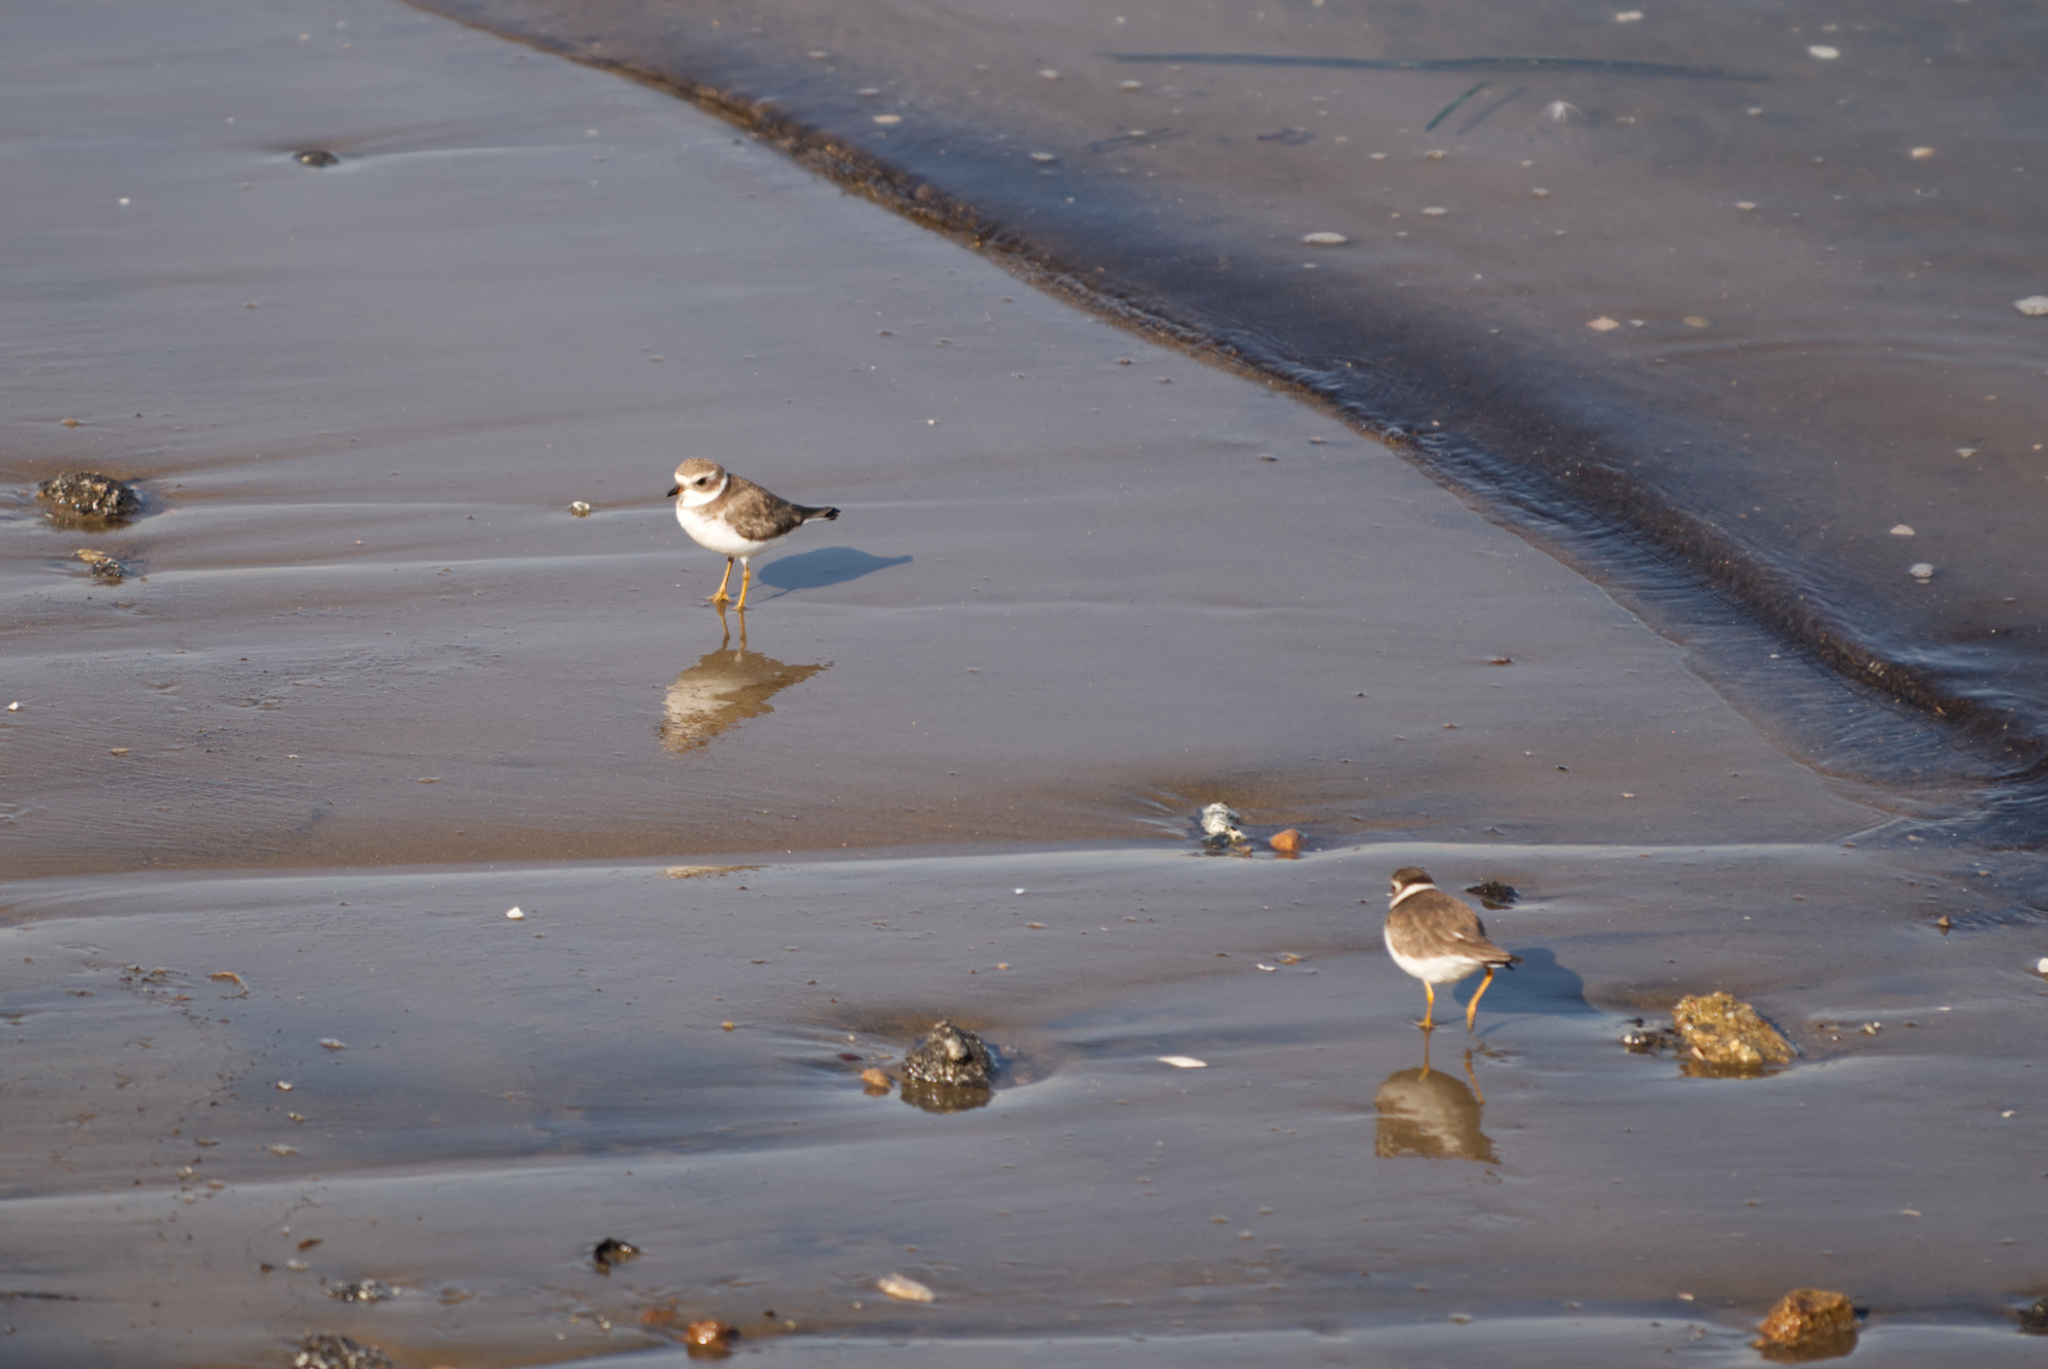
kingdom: Animalia
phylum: Chordata
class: Aves
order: Charadriiformes
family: Charadriidae
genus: Charadrius
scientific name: Charadrius semipalmatus
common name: Semipalmated plover
